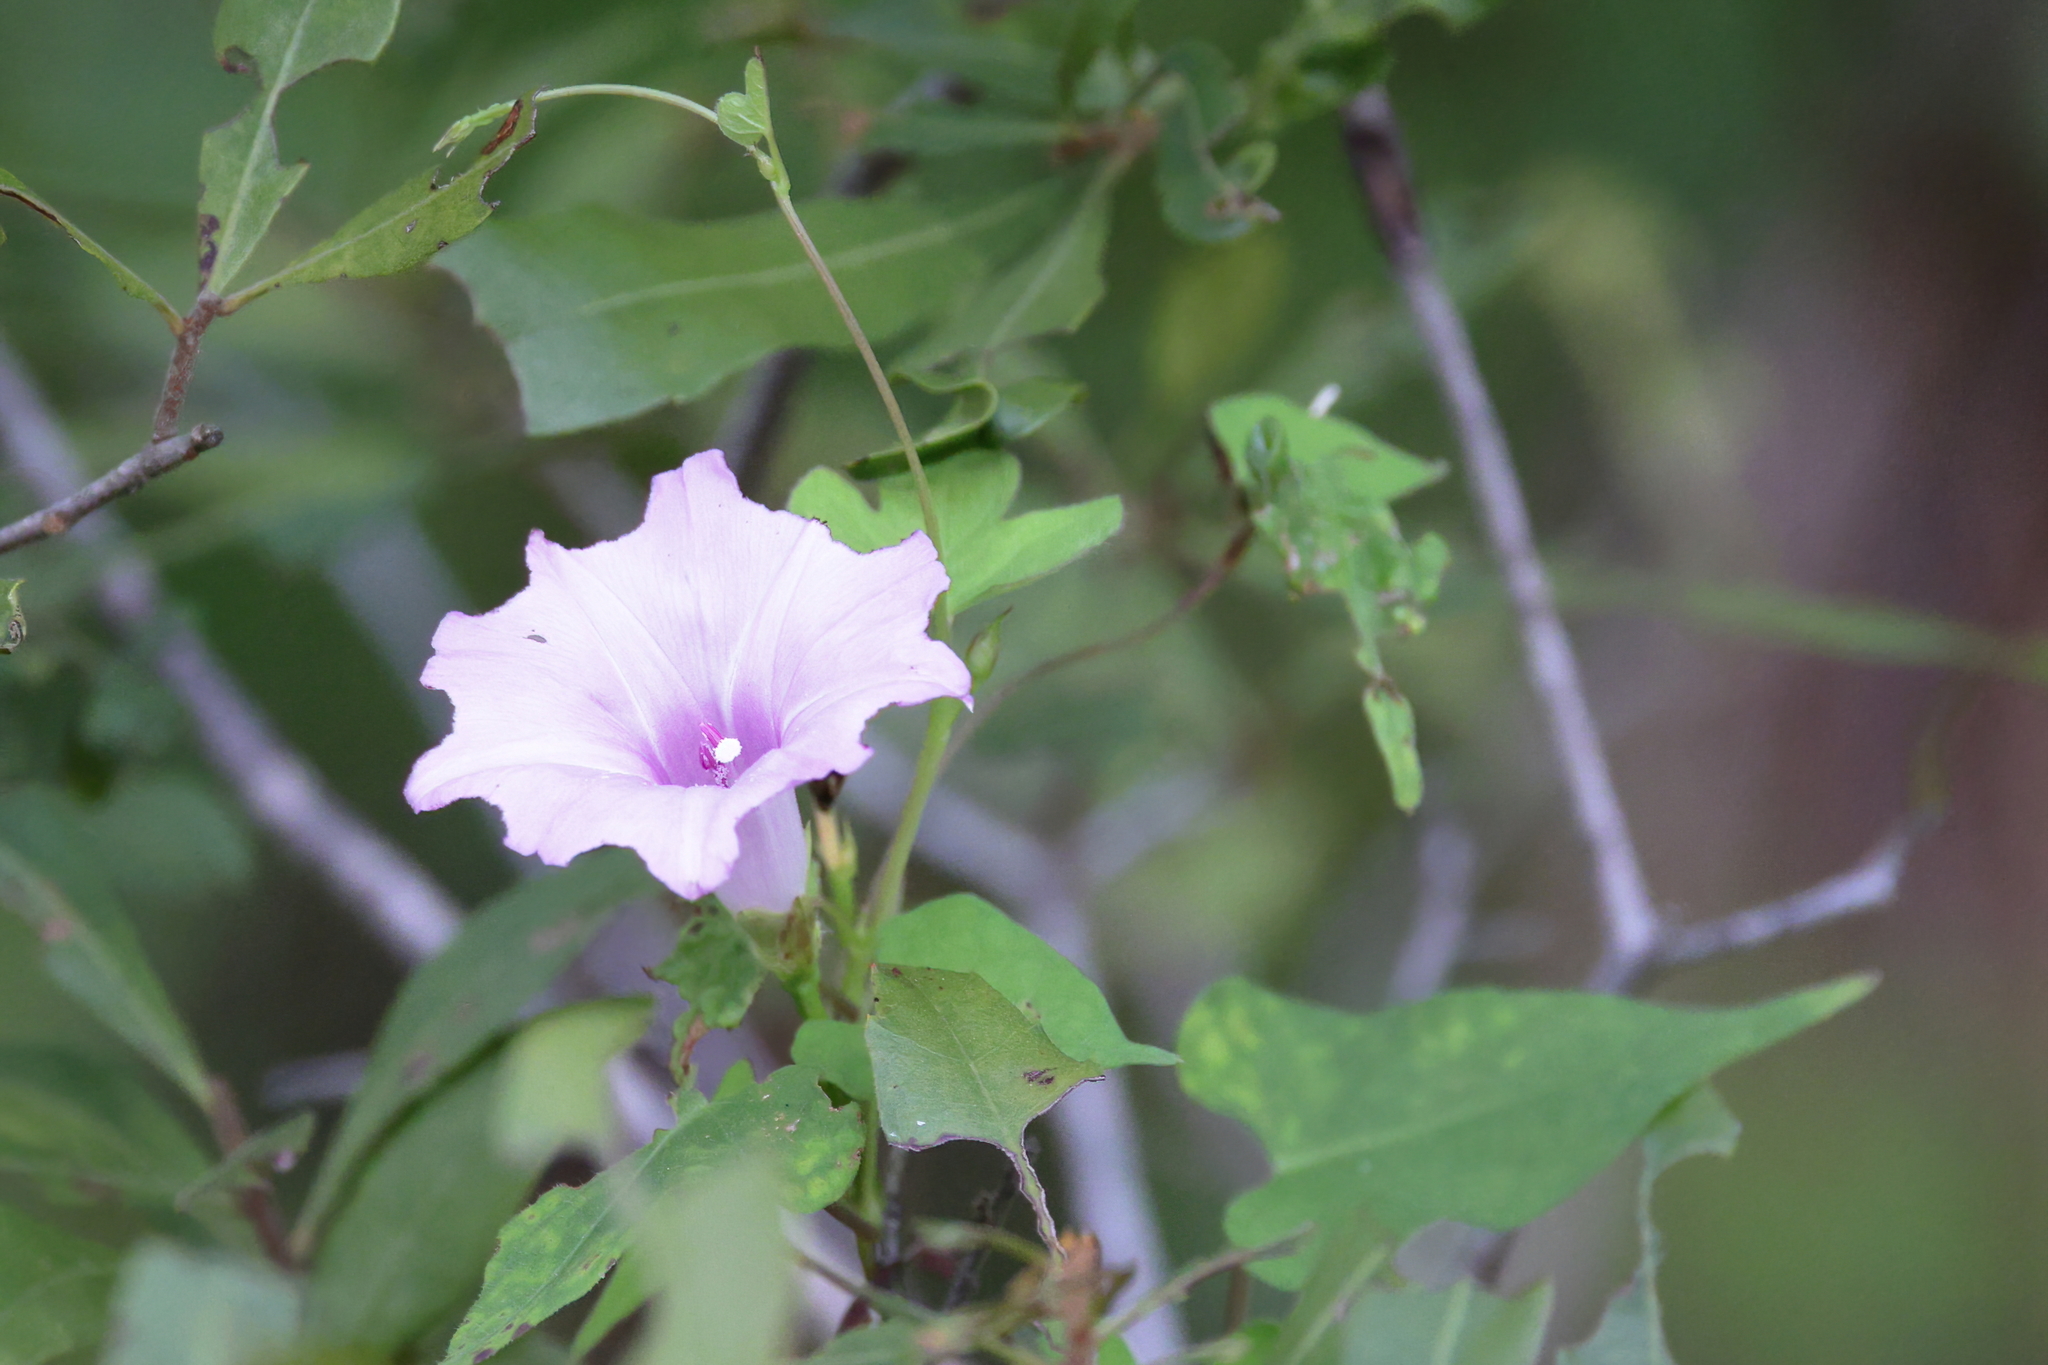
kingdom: Plantae
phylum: Tracheophyta
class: Magnoliopsida
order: Solanales
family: Convolvulaceae
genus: Ipomoea
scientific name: Ipomoea cordatotriloba
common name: Cotton morning glory
